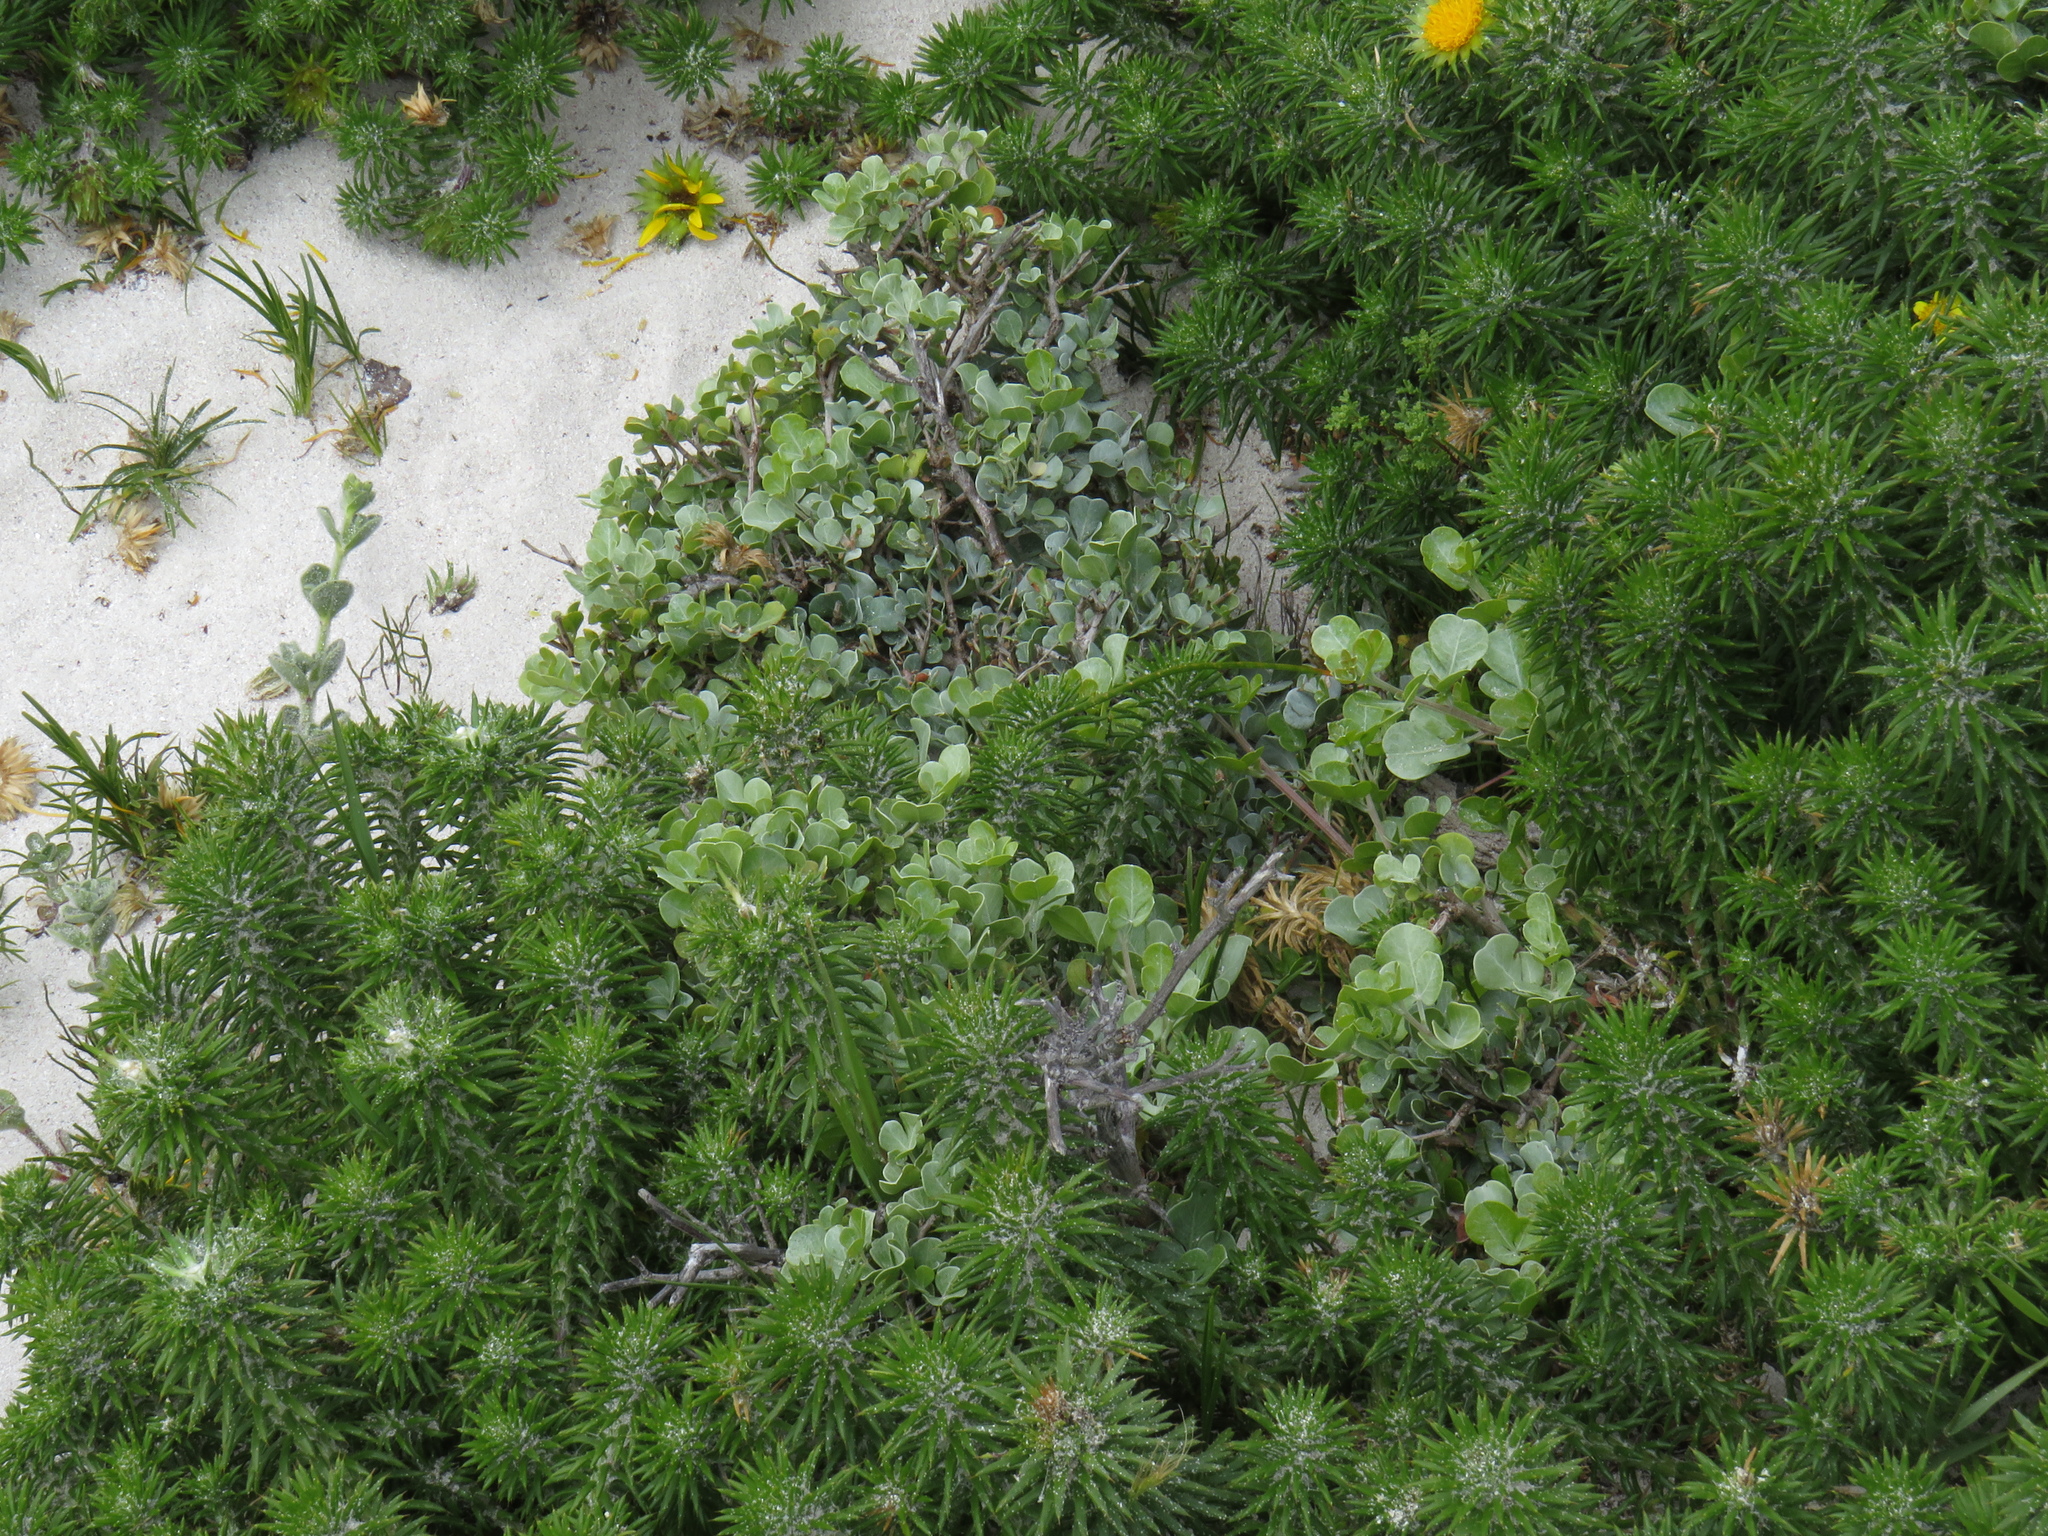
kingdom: Plantae
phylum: Tracheophyta
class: Magnoliopsida
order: Sapindales
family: Anacardiaceae
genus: Searsia
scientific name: Searsia glauca
